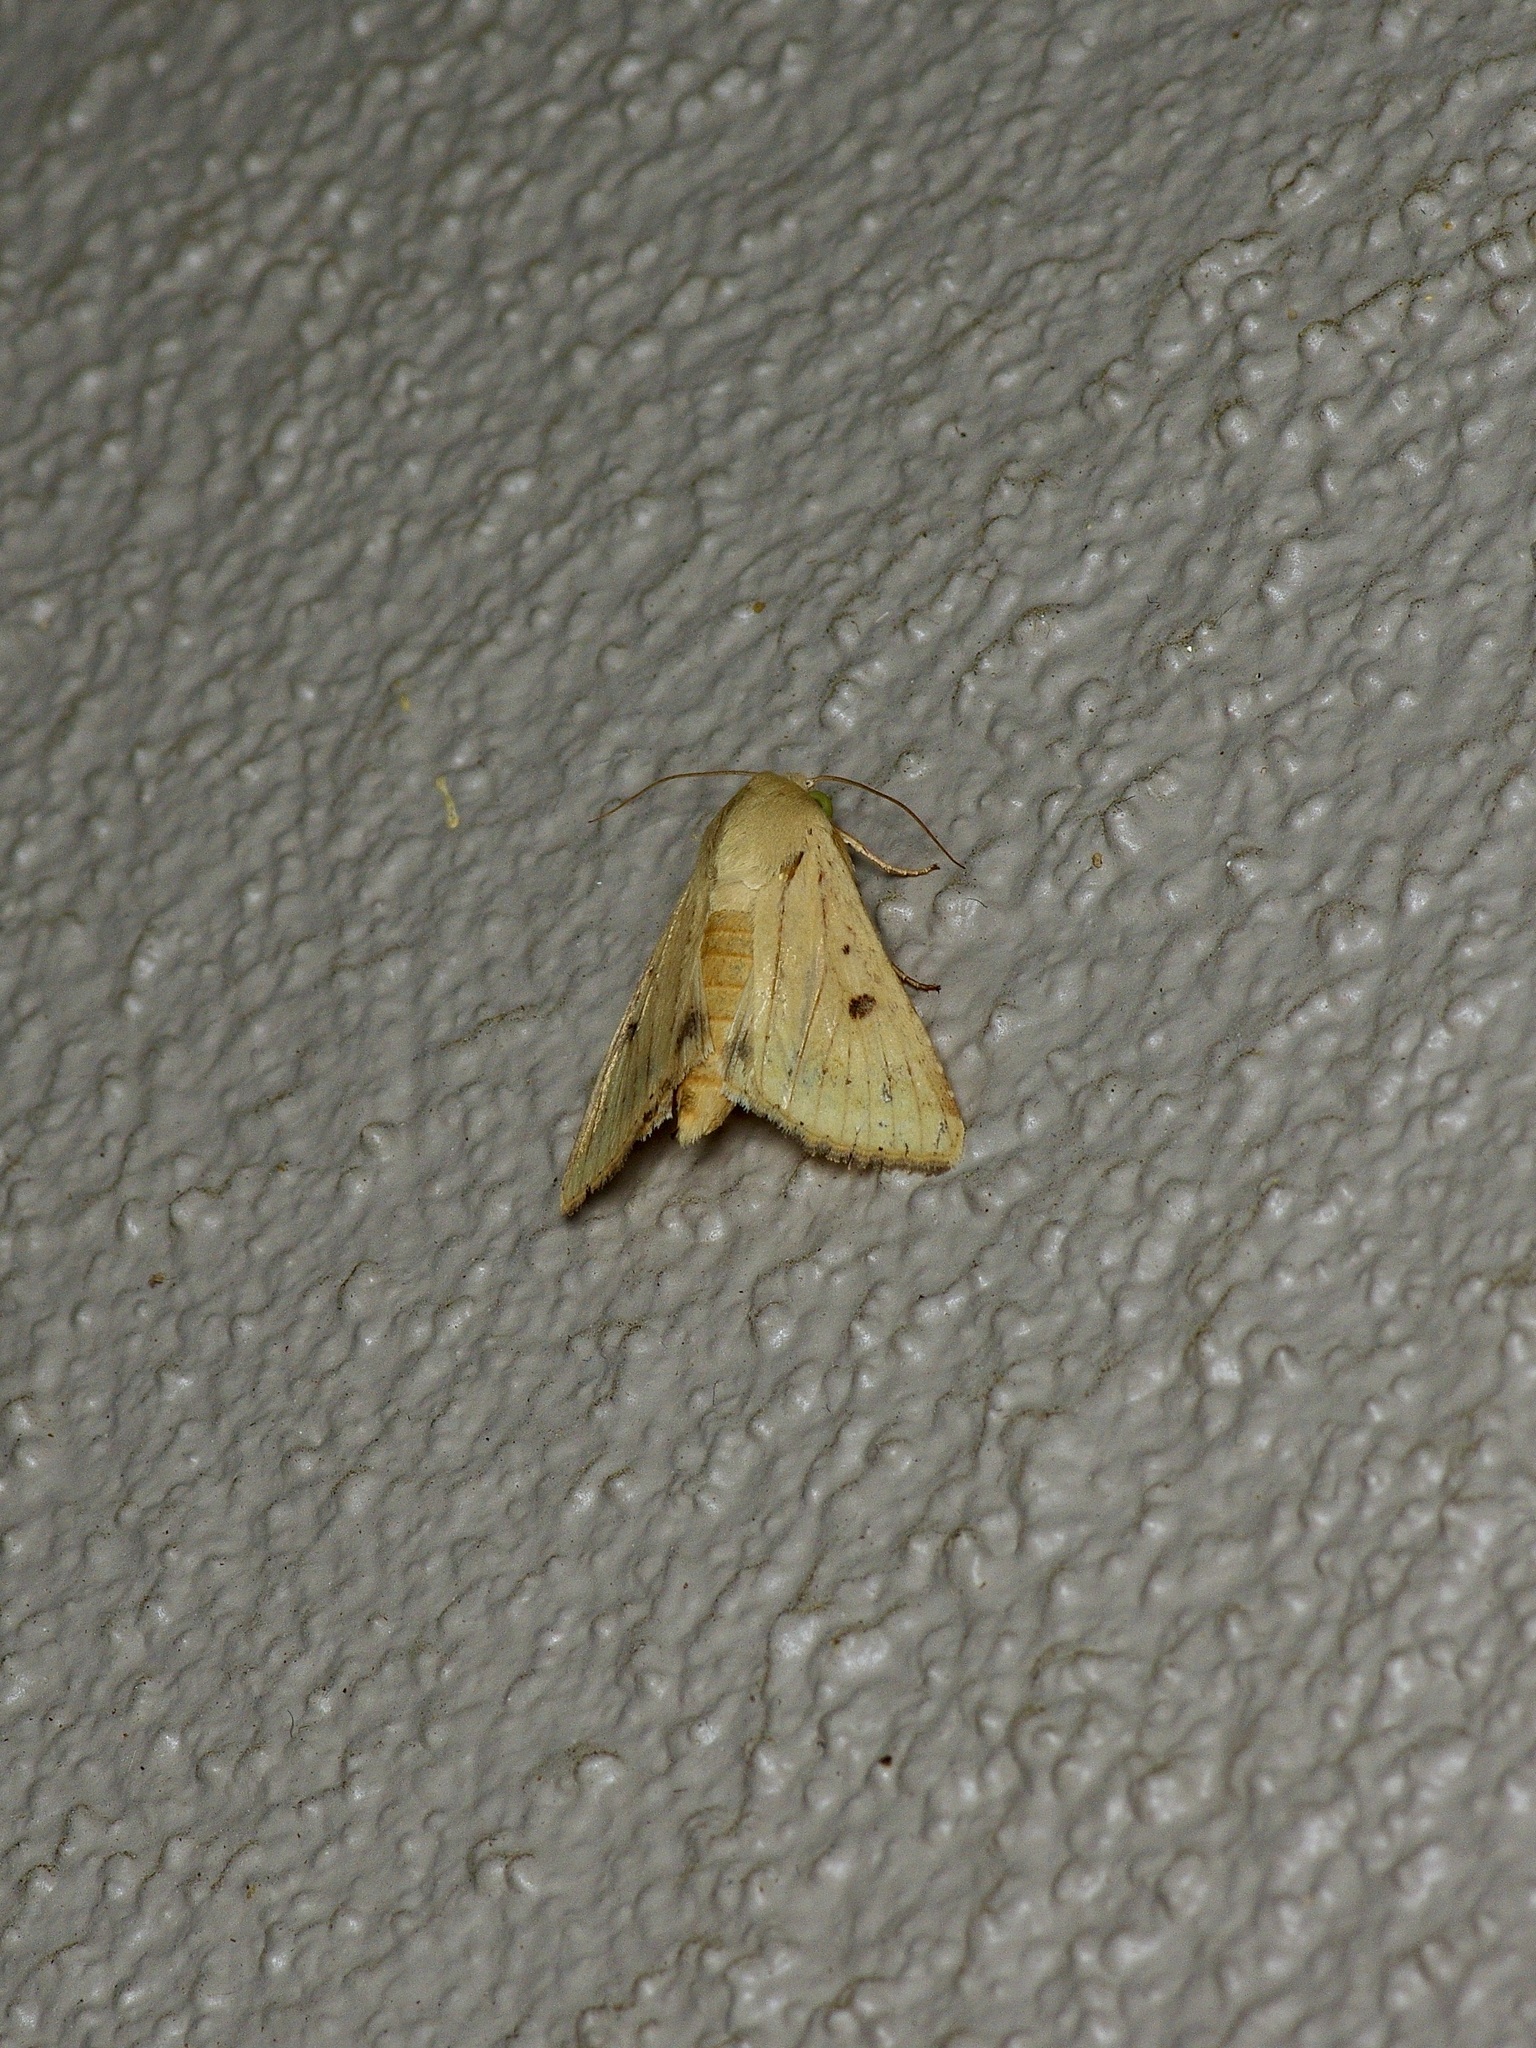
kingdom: Animalia
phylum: Arthropoda
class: Insecta
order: Lepidoptera
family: Noctuidae
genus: Helicoverpa
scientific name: Helicoverpa zea
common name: Bollworm
